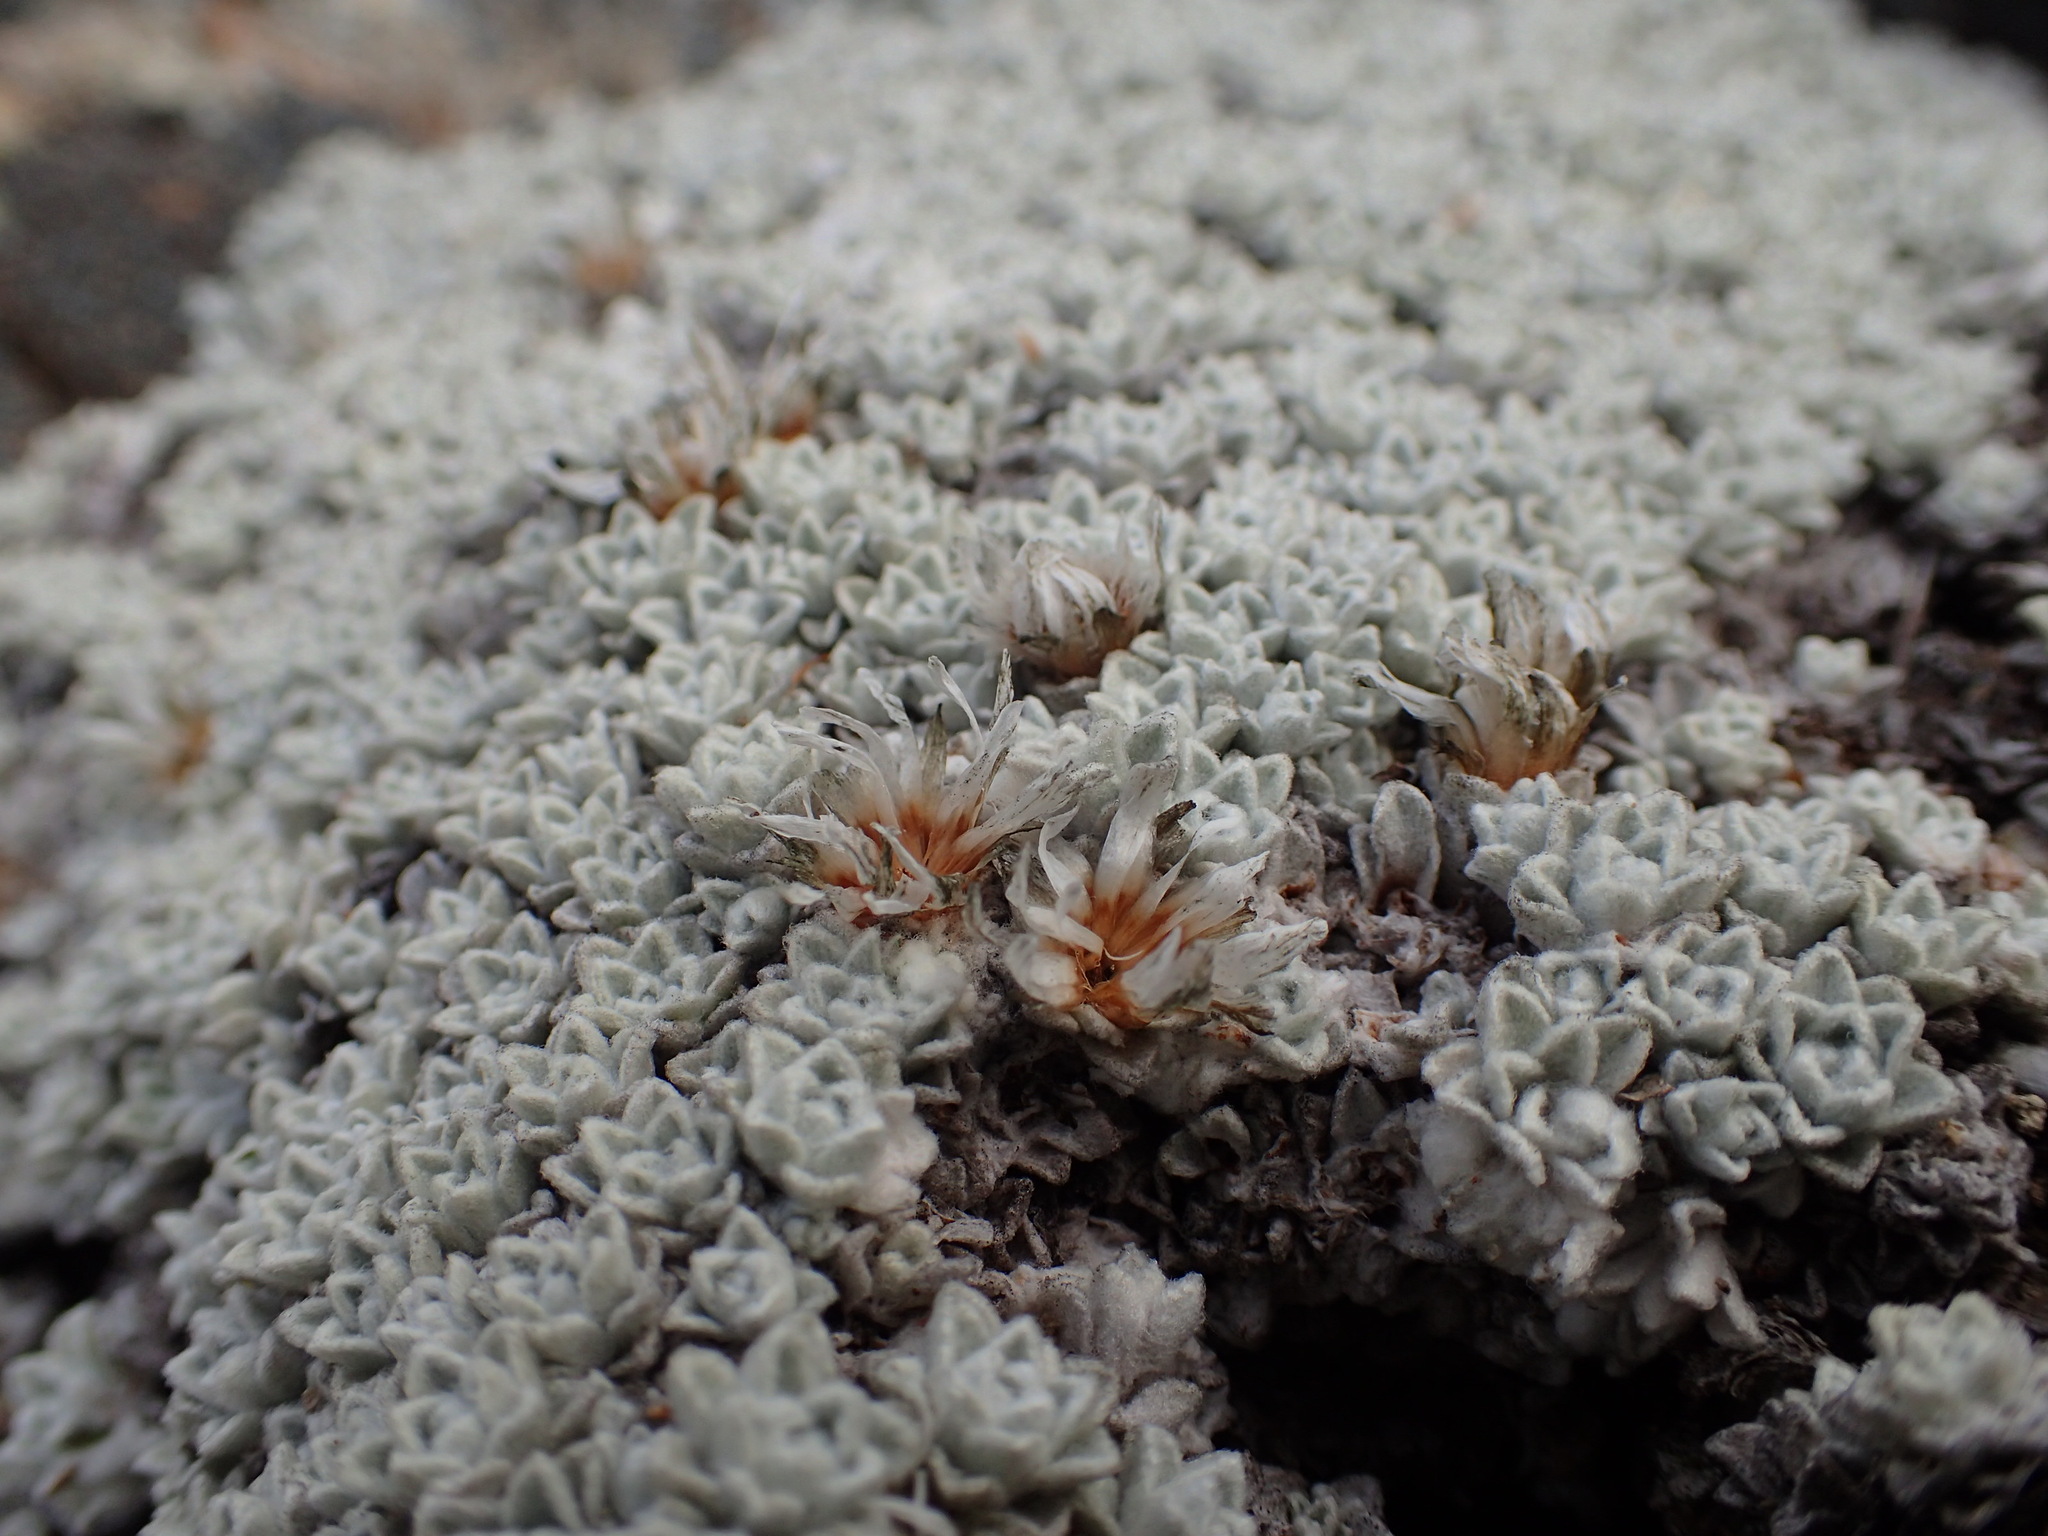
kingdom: Plantae
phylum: Tracheophyta
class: Magnoliopsida
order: Asterales
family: Asteraceae
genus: Raoulia
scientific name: Raoulia youngii
